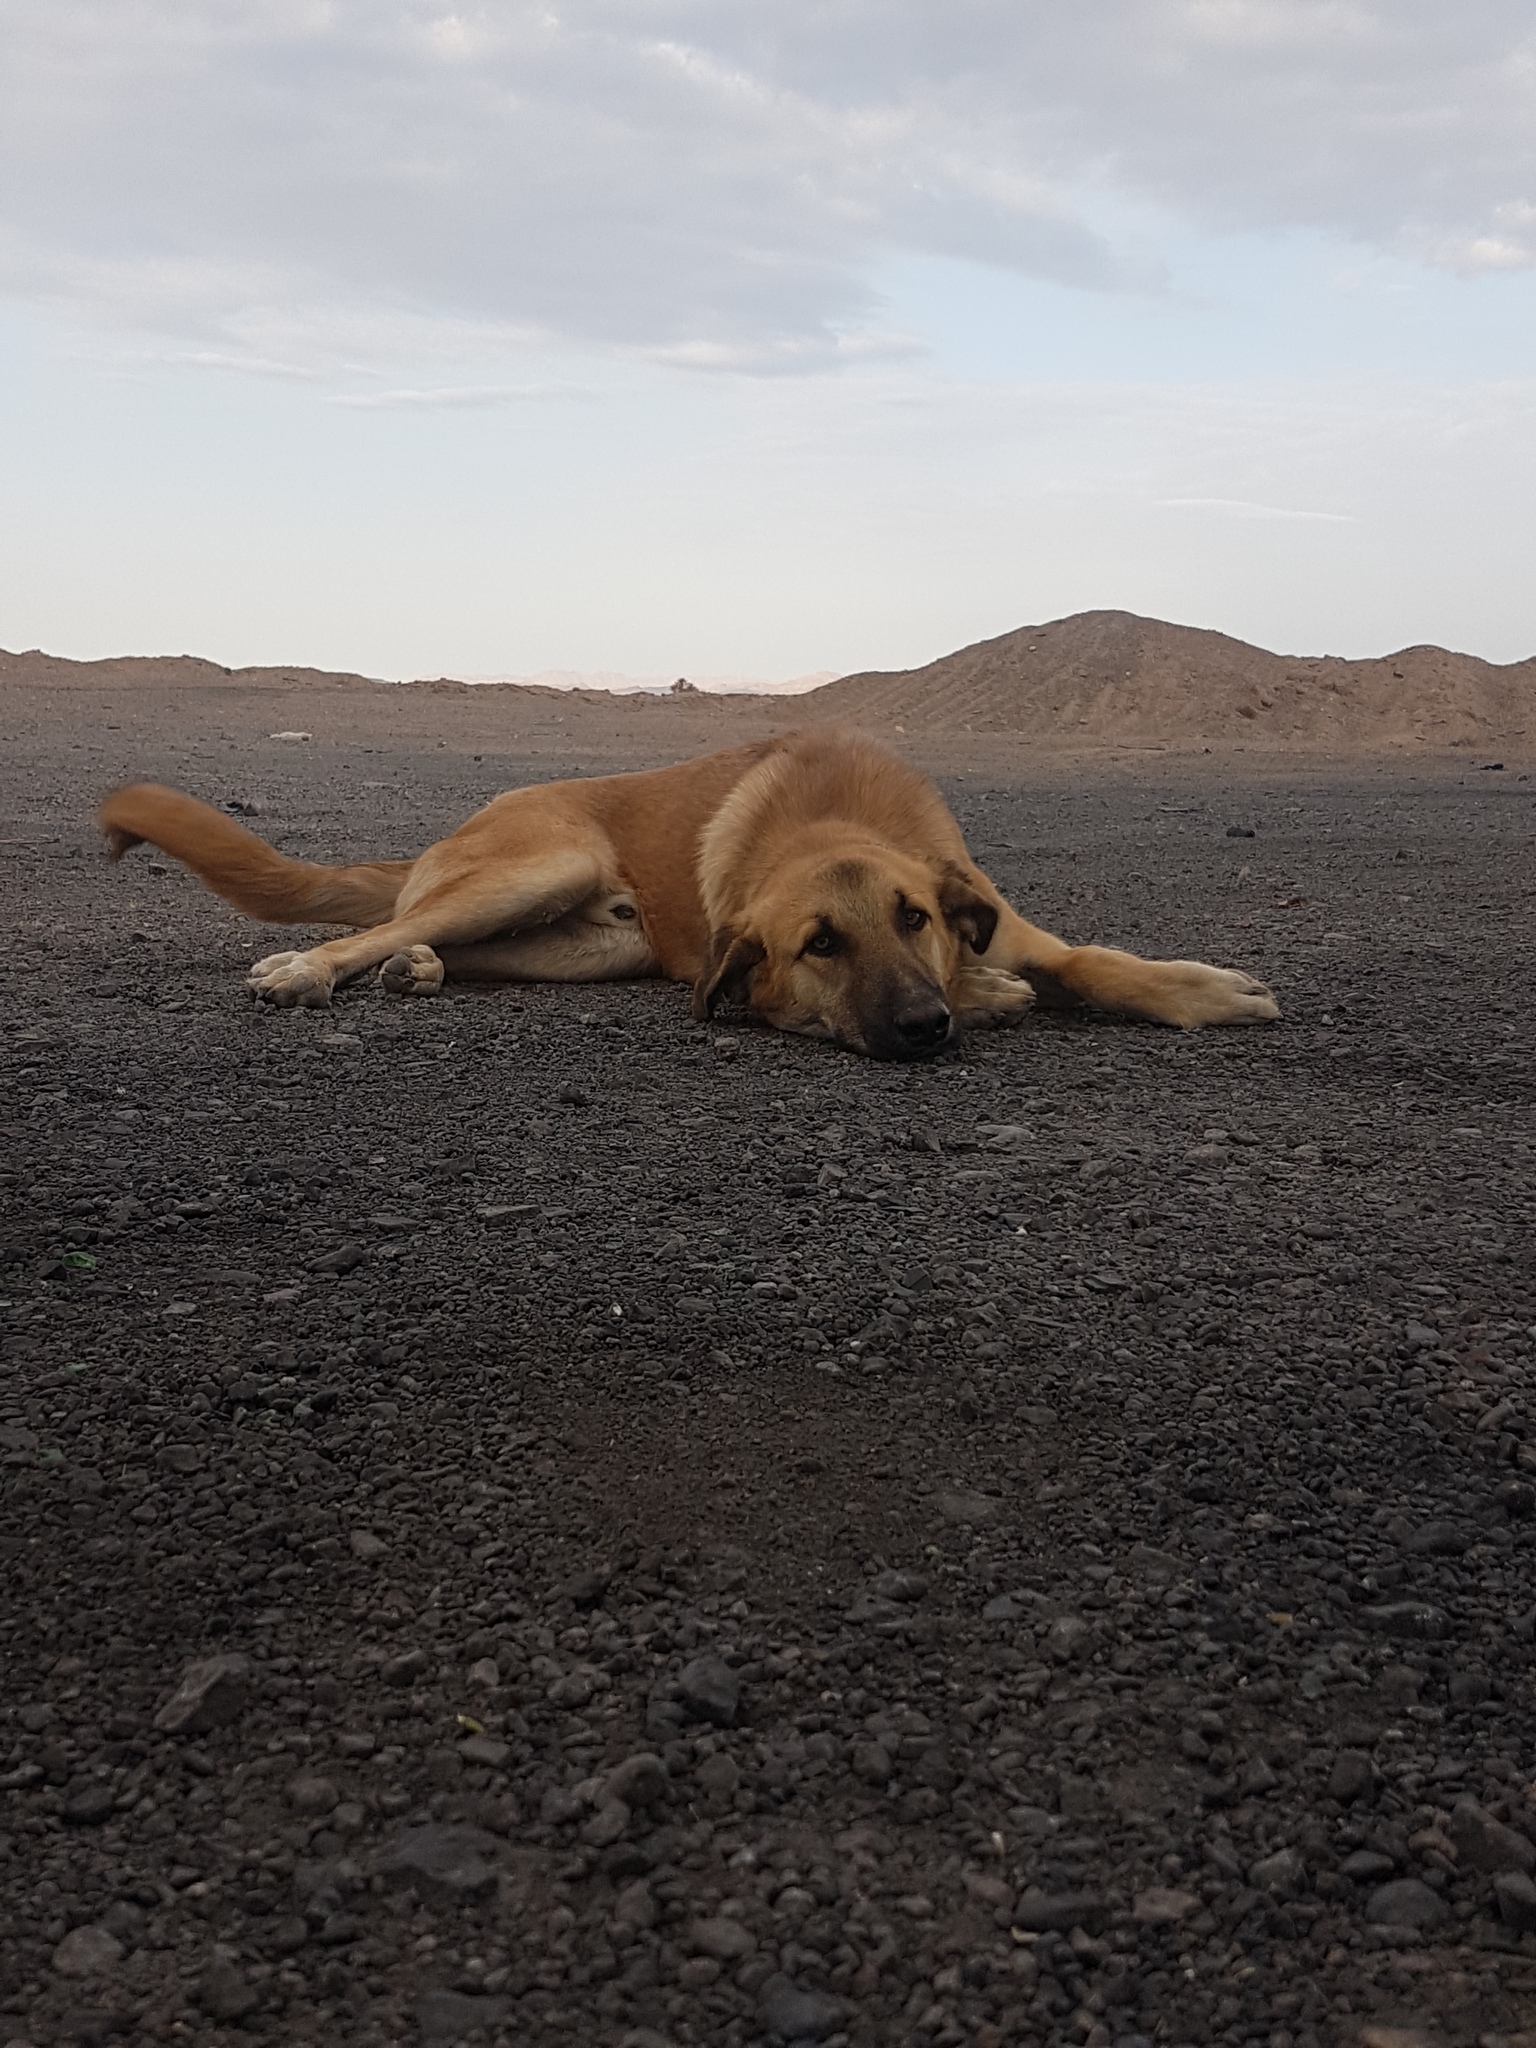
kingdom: Animalia
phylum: Chordata
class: Mammalia
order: Carnivora
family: Canidae
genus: Canis
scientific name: Canis lupus
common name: Gray wolf
